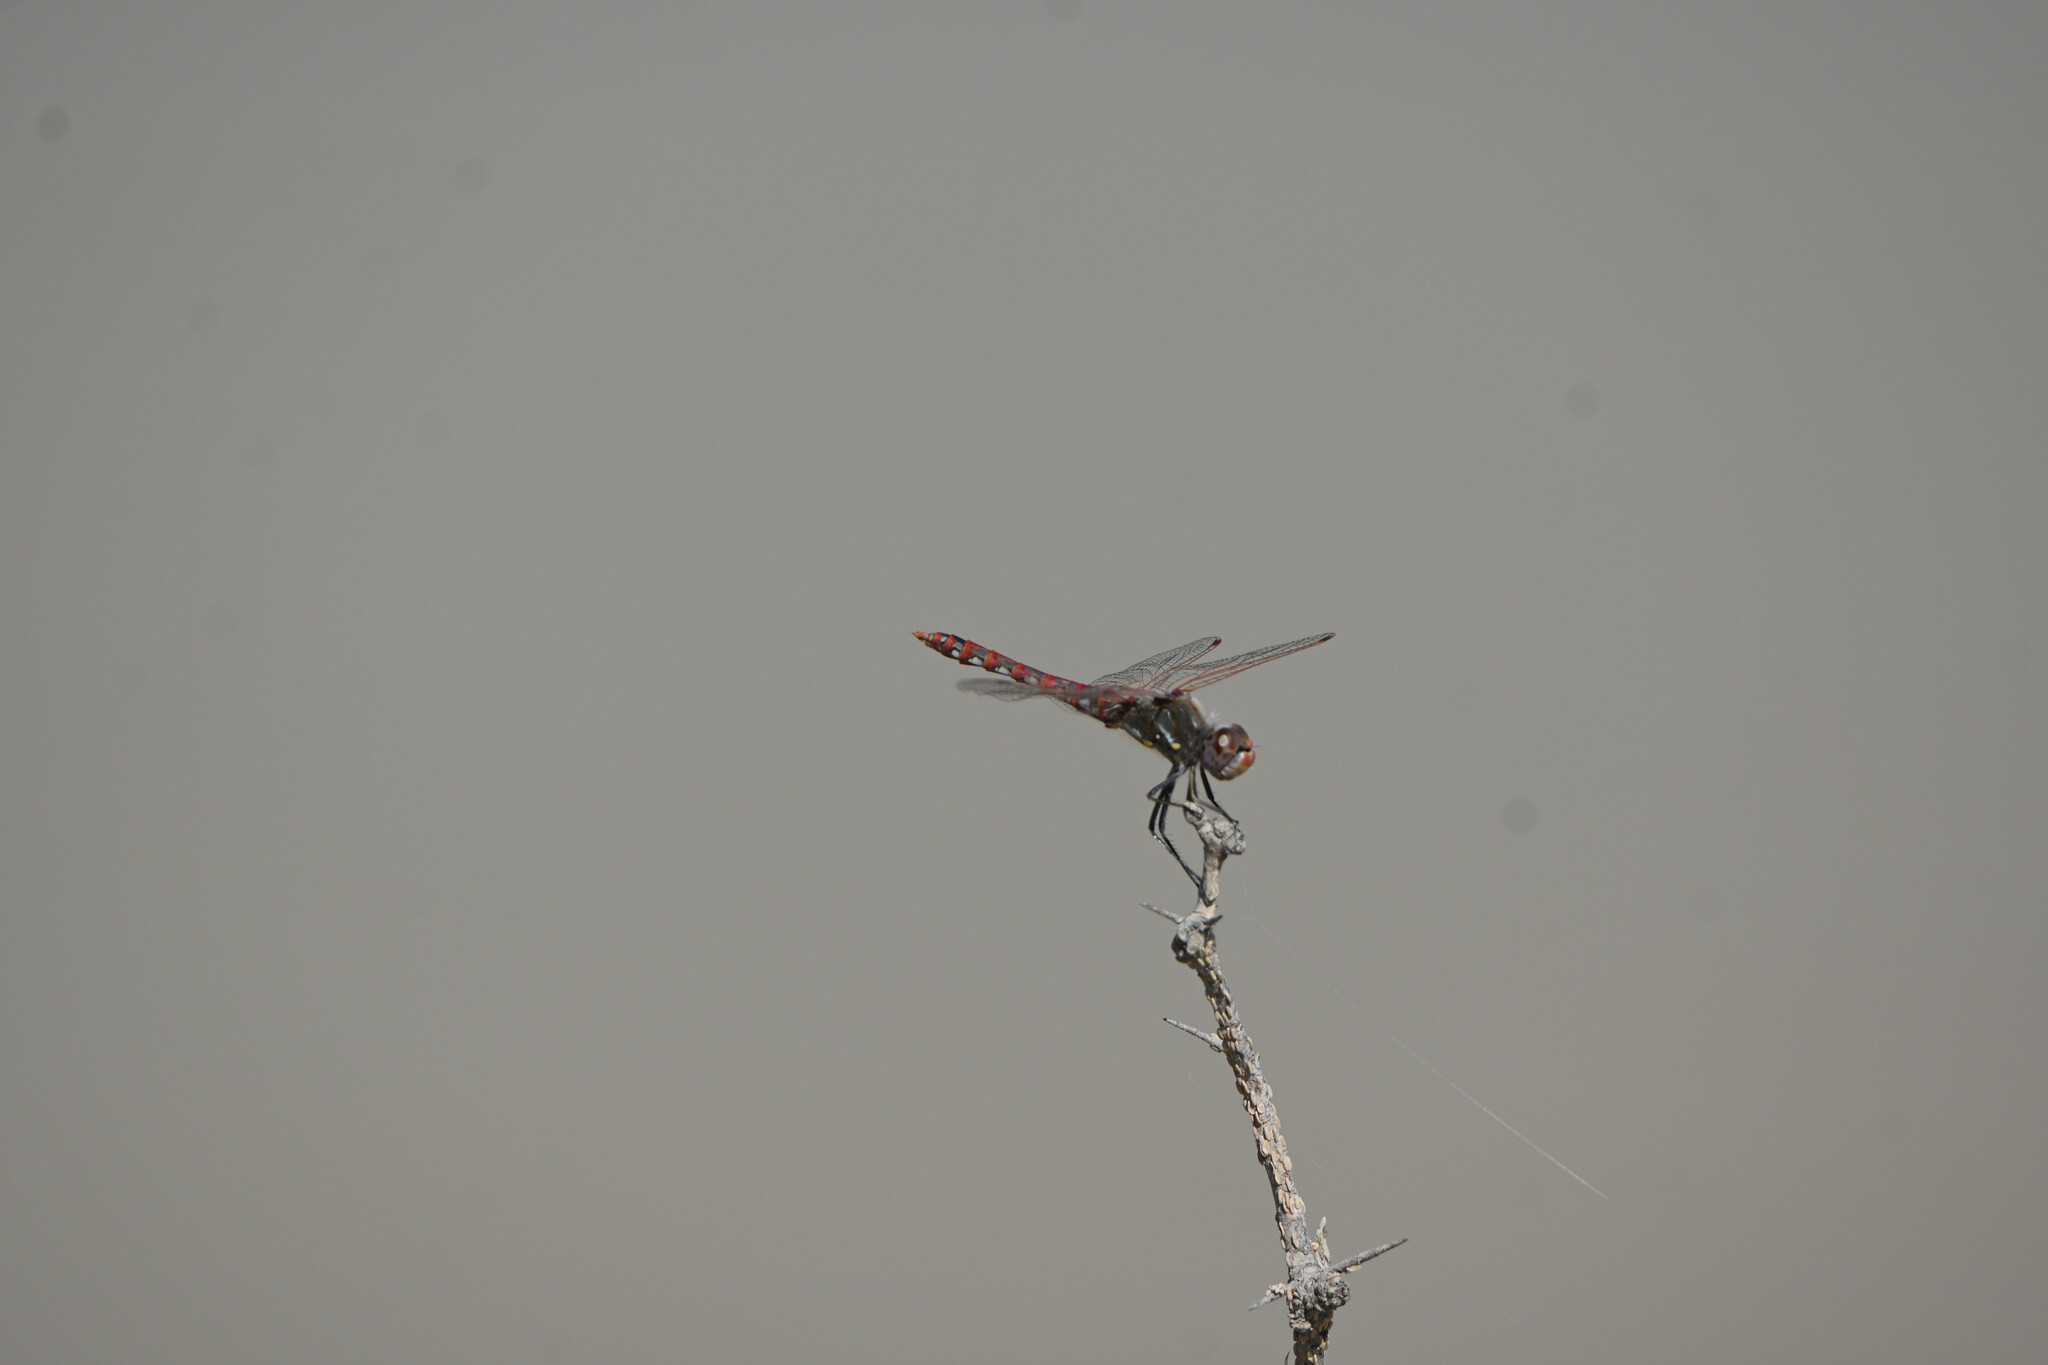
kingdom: Animalia
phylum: Arthropoda
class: Insecta
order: Odonata
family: Libellulidae
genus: Sympetrum
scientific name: Sympetrum corruptum
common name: Variegated meadowhawk
